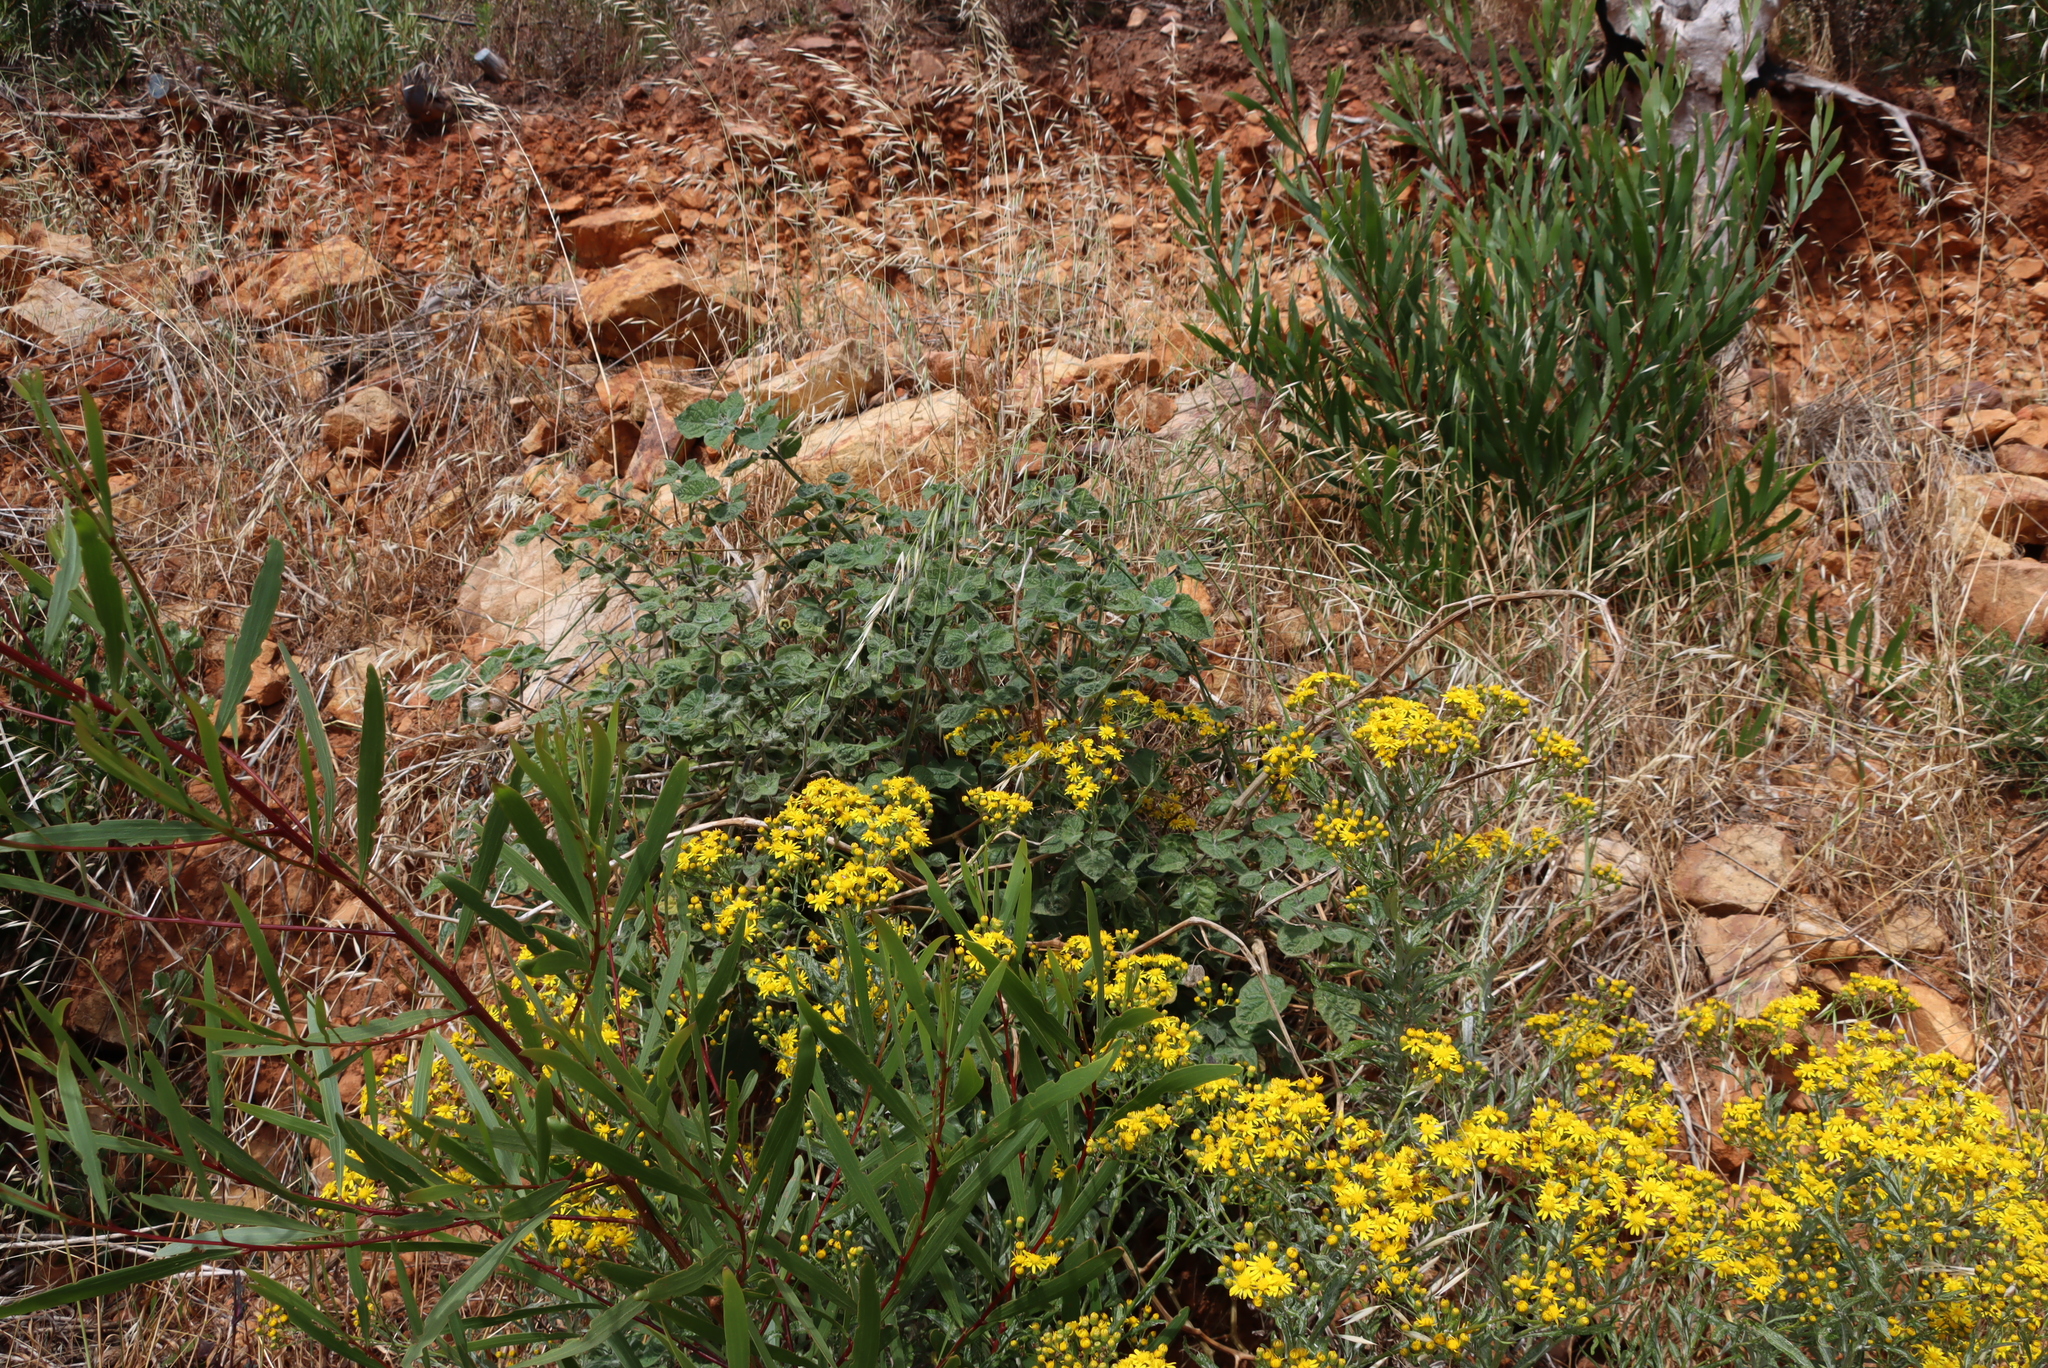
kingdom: Plantae
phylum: Tracheophyta
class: Magnoliopsida
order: Fabales
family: Fabaceae
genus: Acacia
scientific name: Acacia longifolia
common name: Sydney golden wattle
